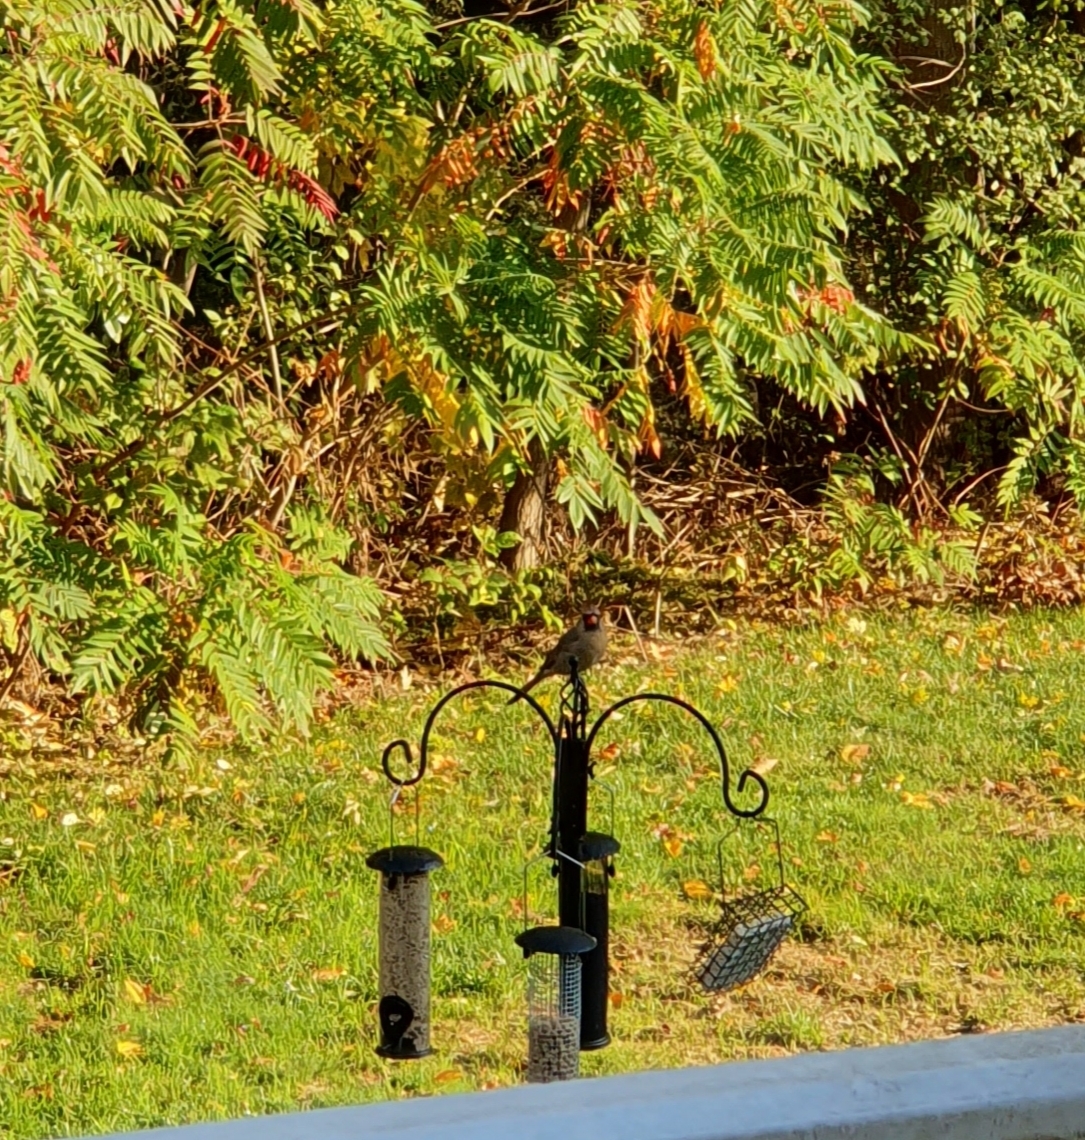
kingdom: Animalia
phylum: Chordata
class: Aves
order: Passeriformes
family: Cardinalidae
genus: Cardinalis
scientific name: Cardinalis cardinalis
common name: Northern cardinal
